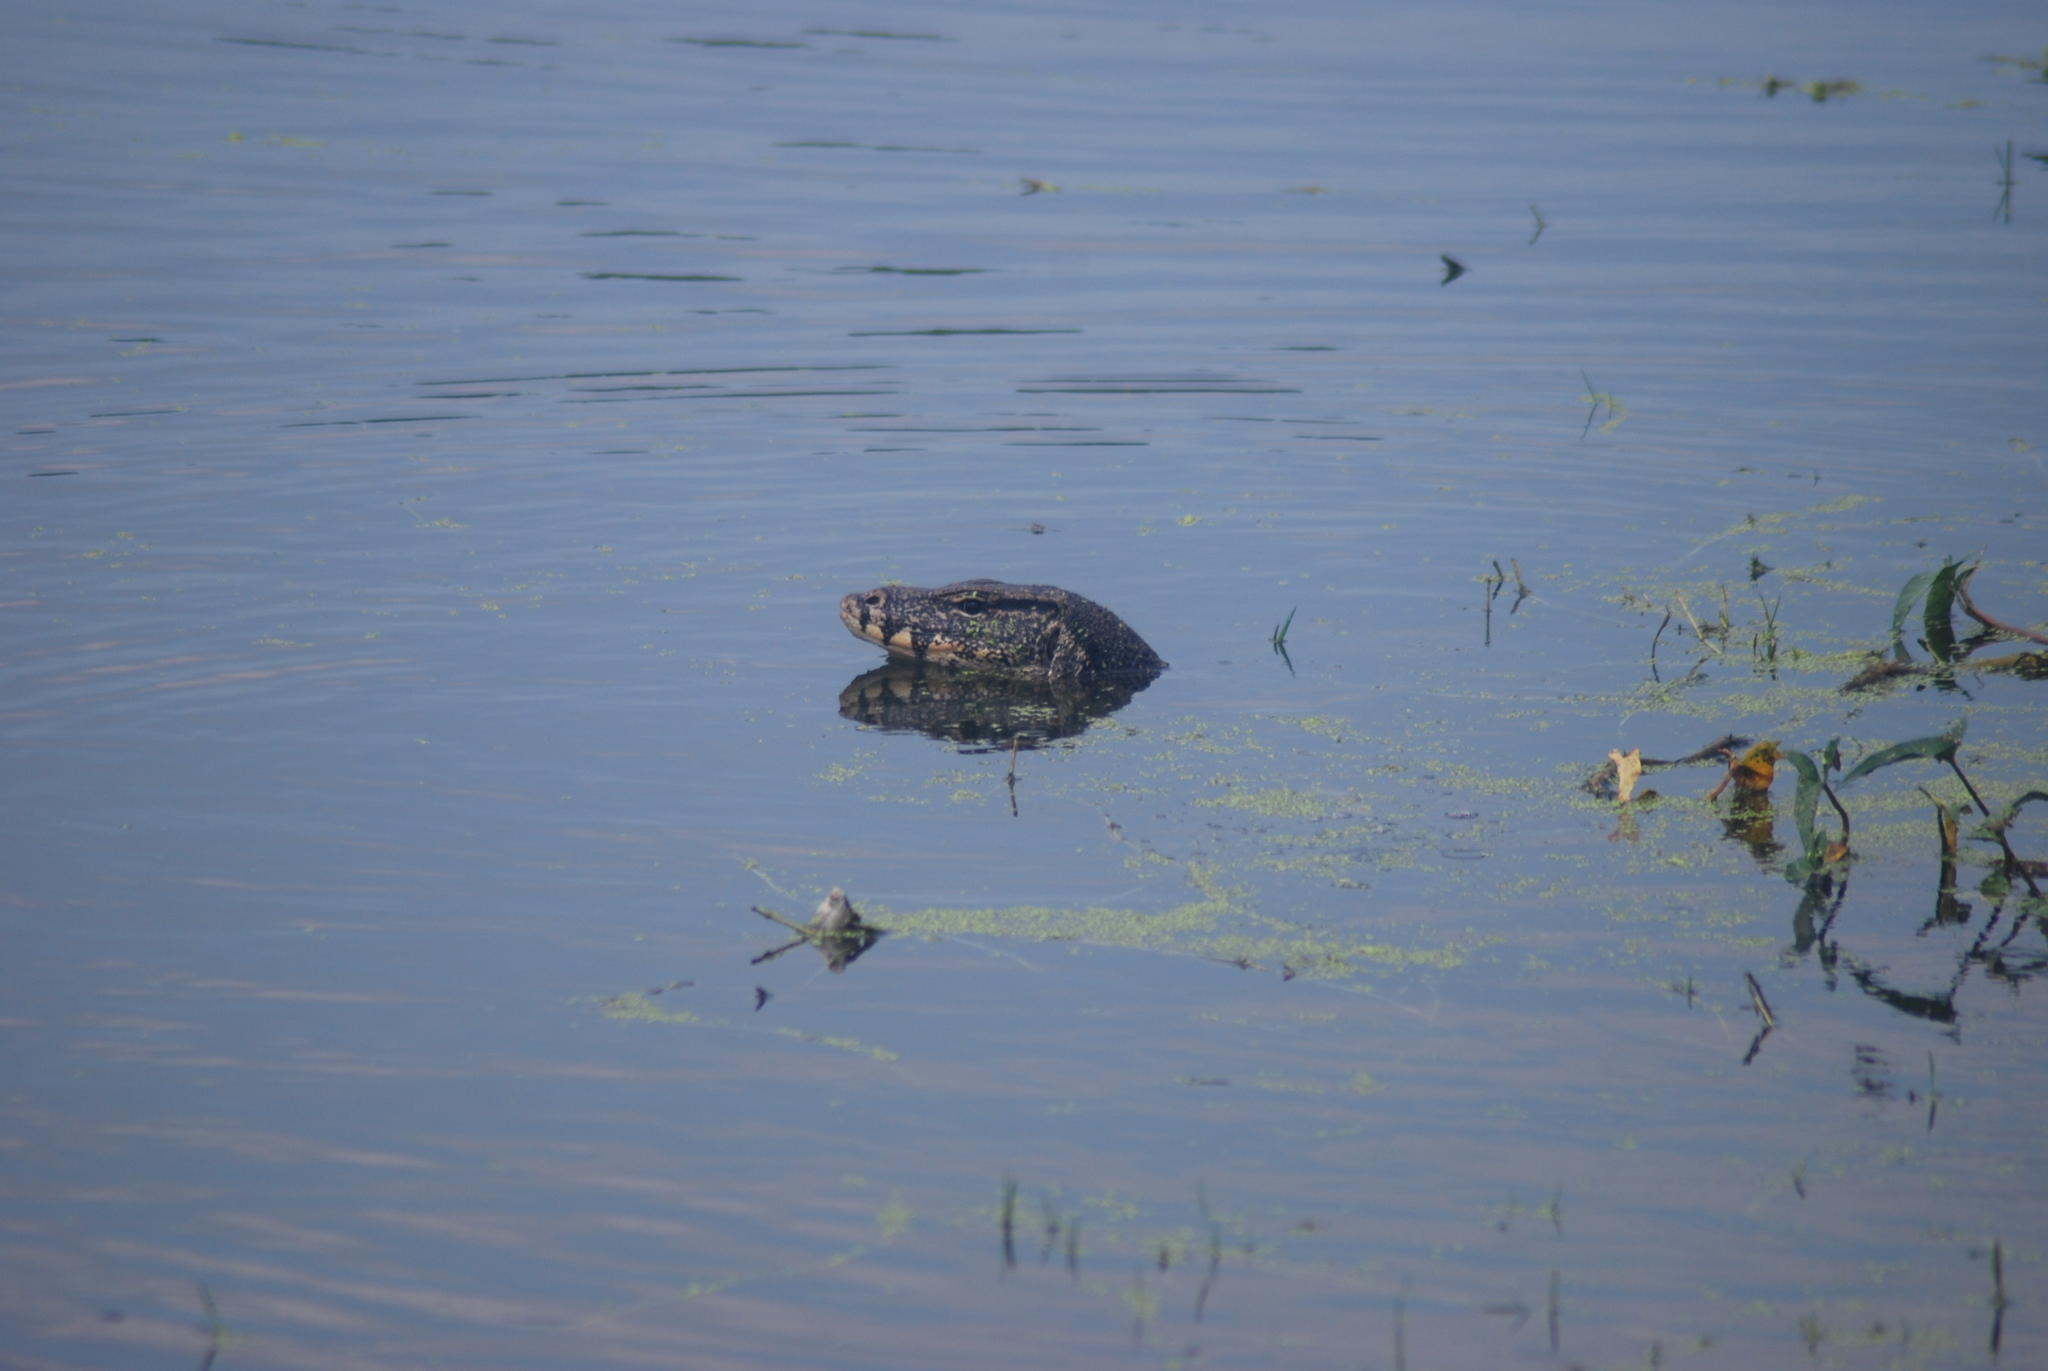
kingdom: Animalia
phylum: Chordata
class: Squamata
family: Varanidae
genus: Varanus
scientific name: Varanus salvator
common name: Common water monitor
